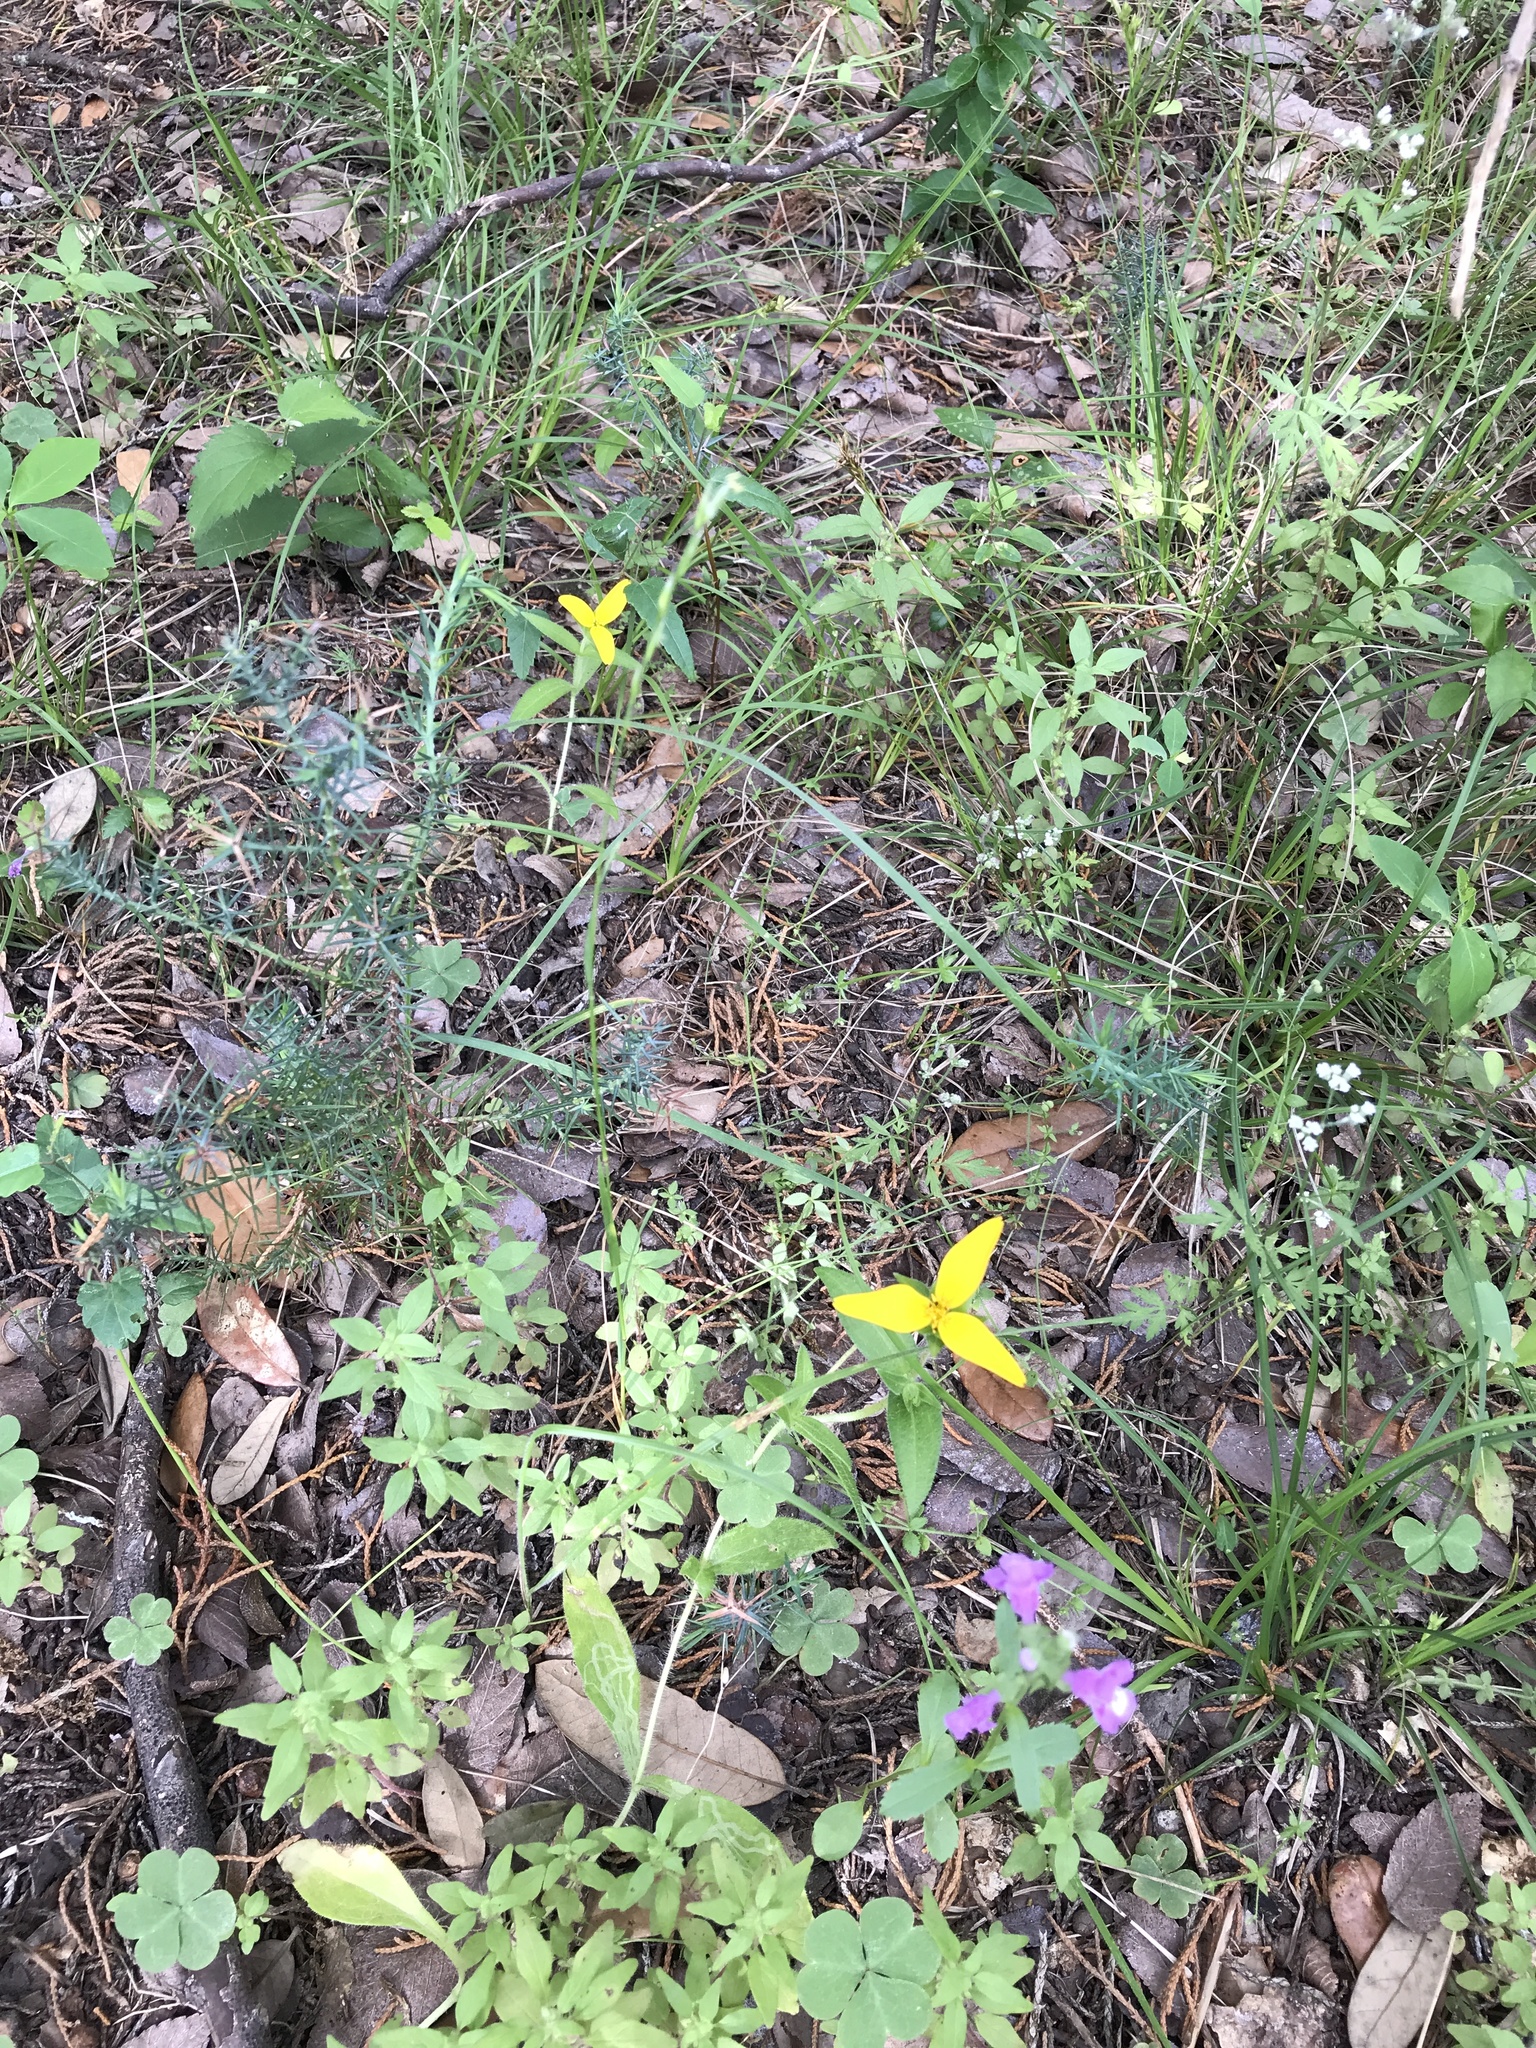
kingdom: Plantae
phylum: Tracheophyta
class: Magnoliopsida
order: Asterales
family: Asteraceae
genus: Lindheimera
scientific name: Lindheimera texana
